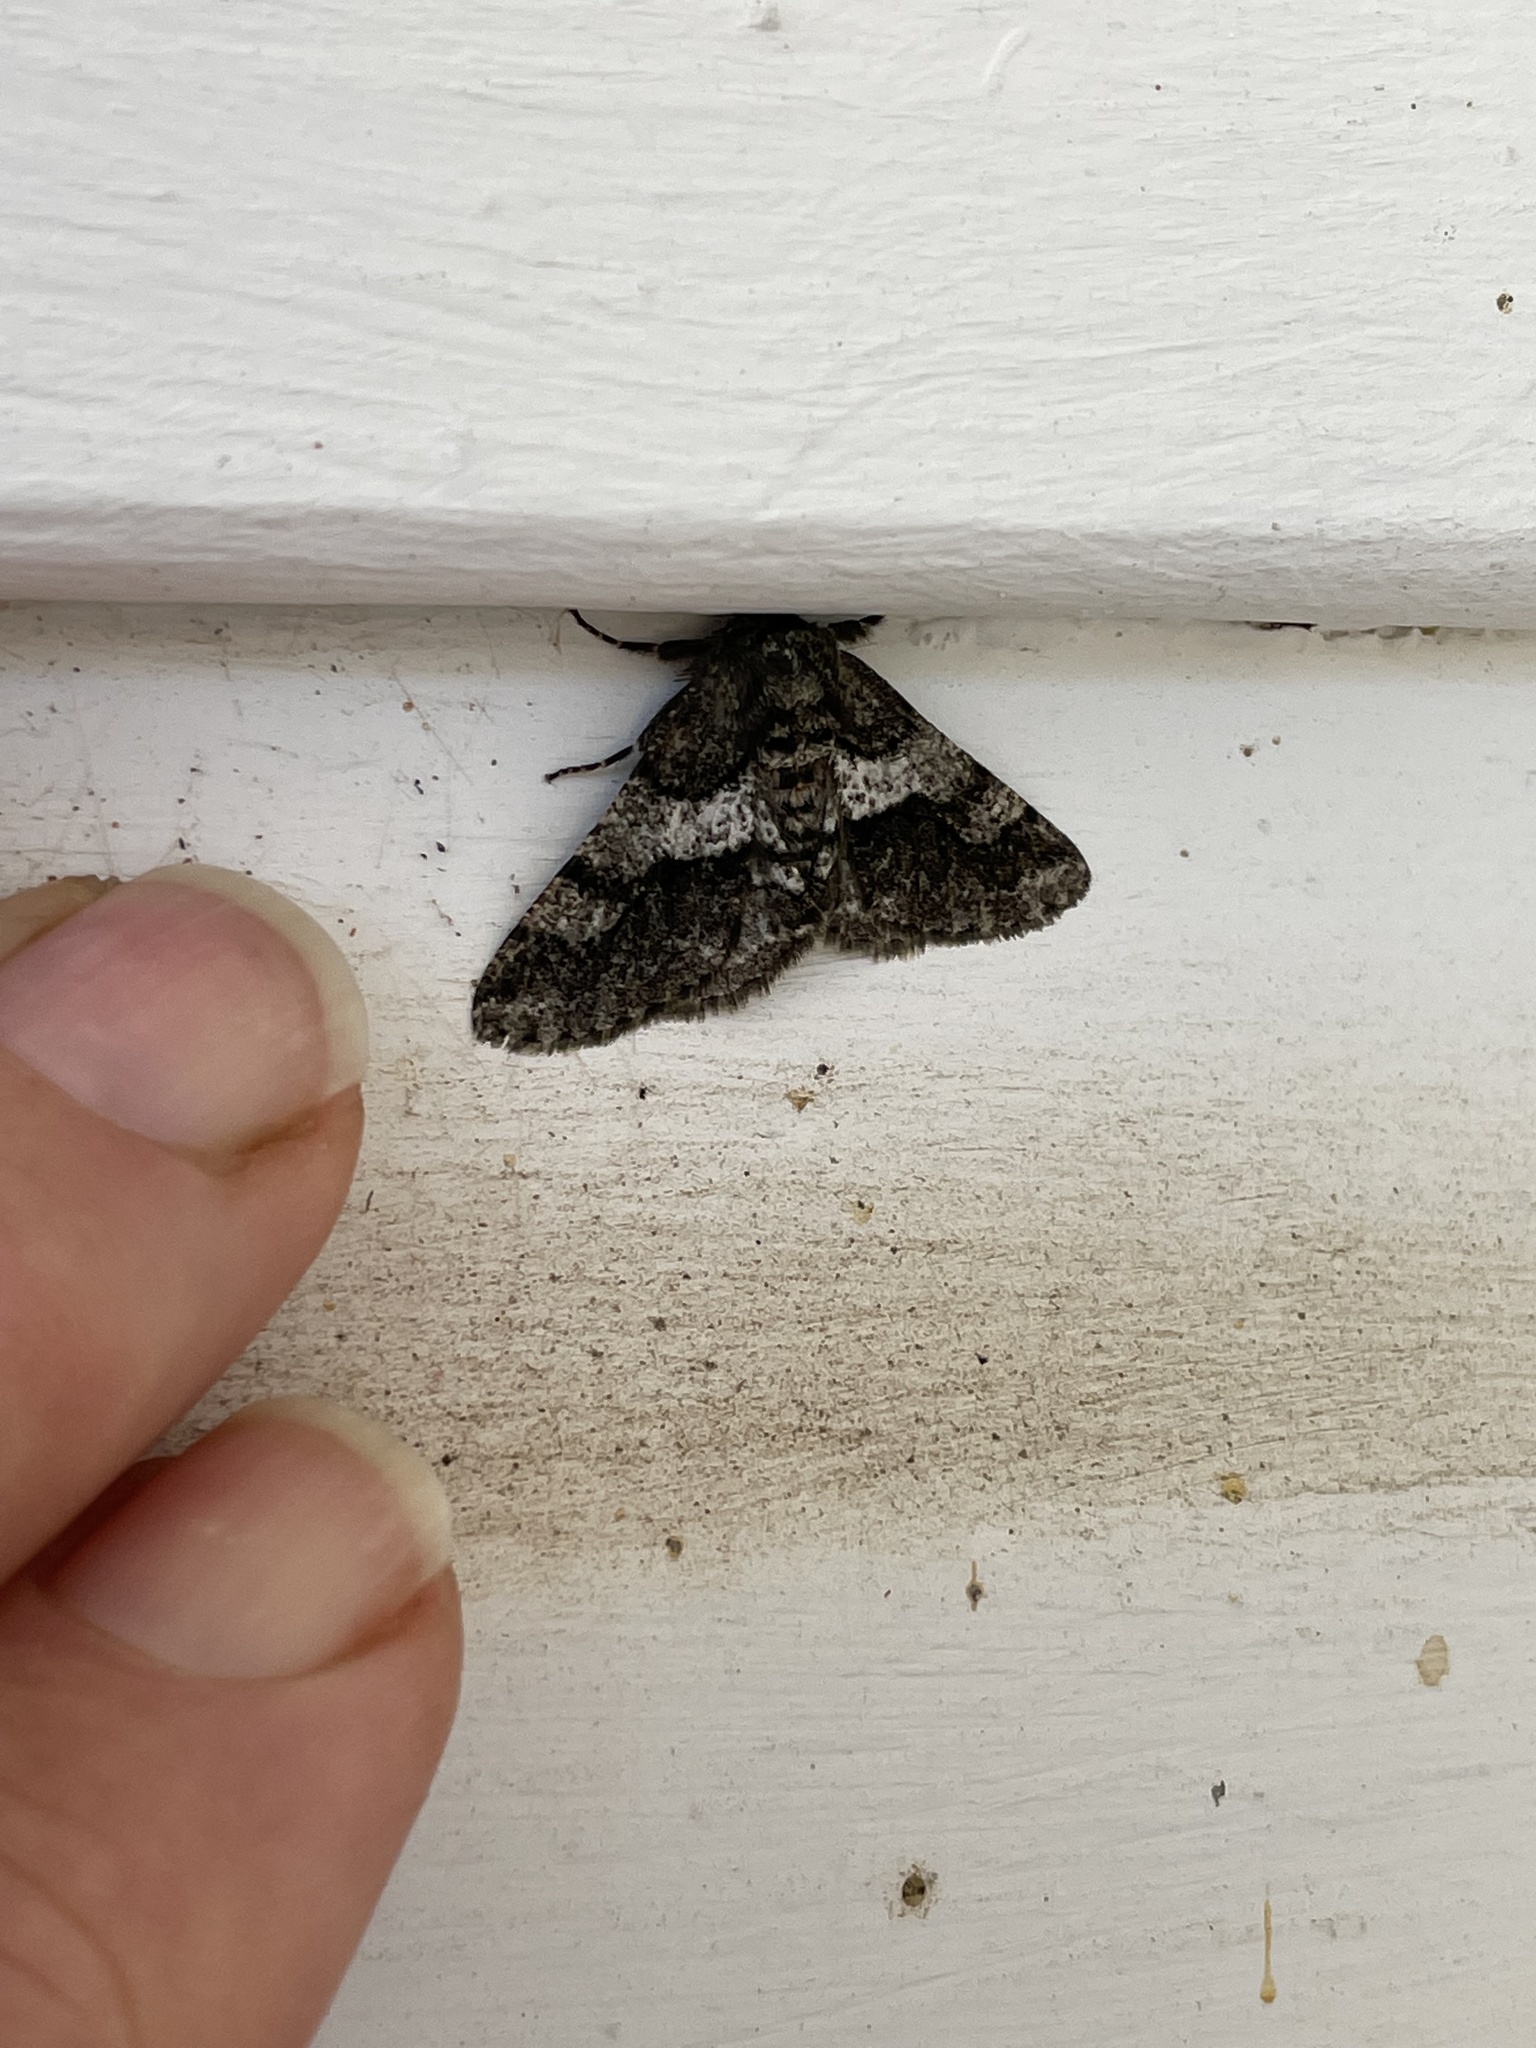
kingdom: Animalia
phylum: Arthropoda
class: Insecta
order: Lepidoptera
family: Geometridae
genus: Lycia
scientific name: Lycia ypsilon
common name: Wooly gray
